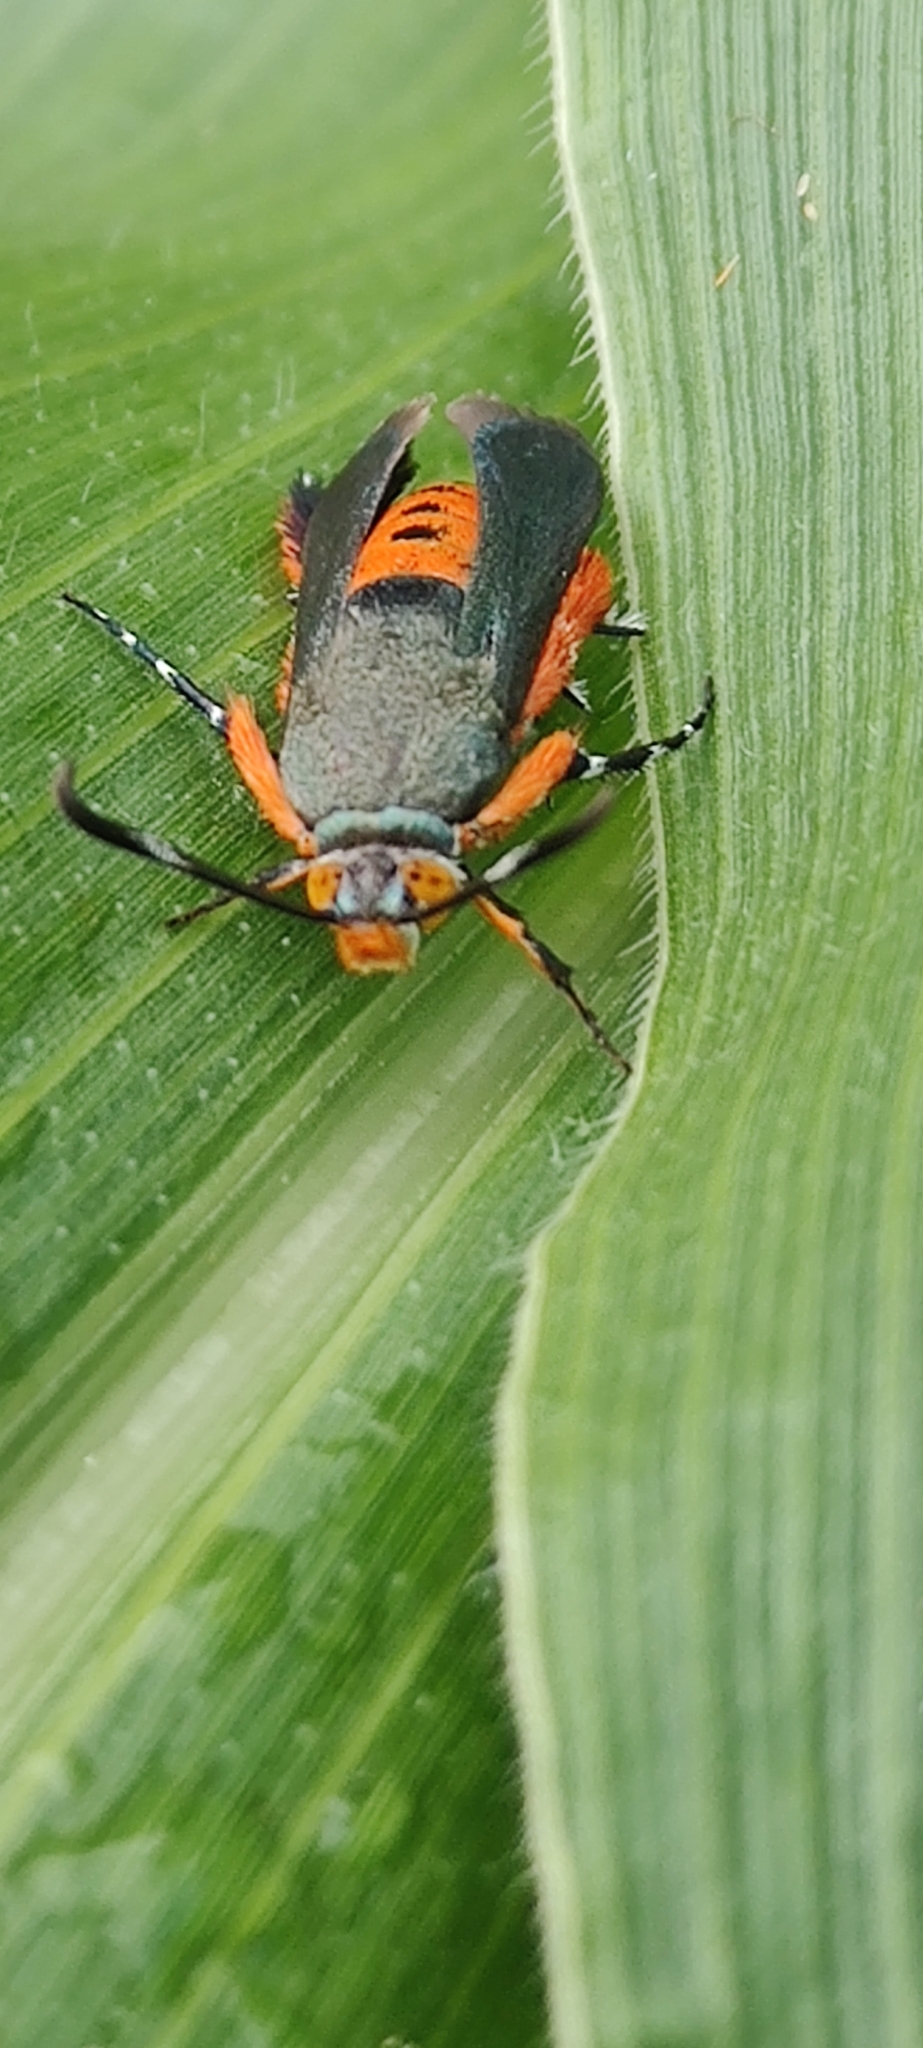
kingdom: Animalia
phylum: Arthropoda
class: Insecta
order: Lepidoptera
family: Sesiidae
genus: Eichlinia
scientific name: Eichlinia cucurbitae
